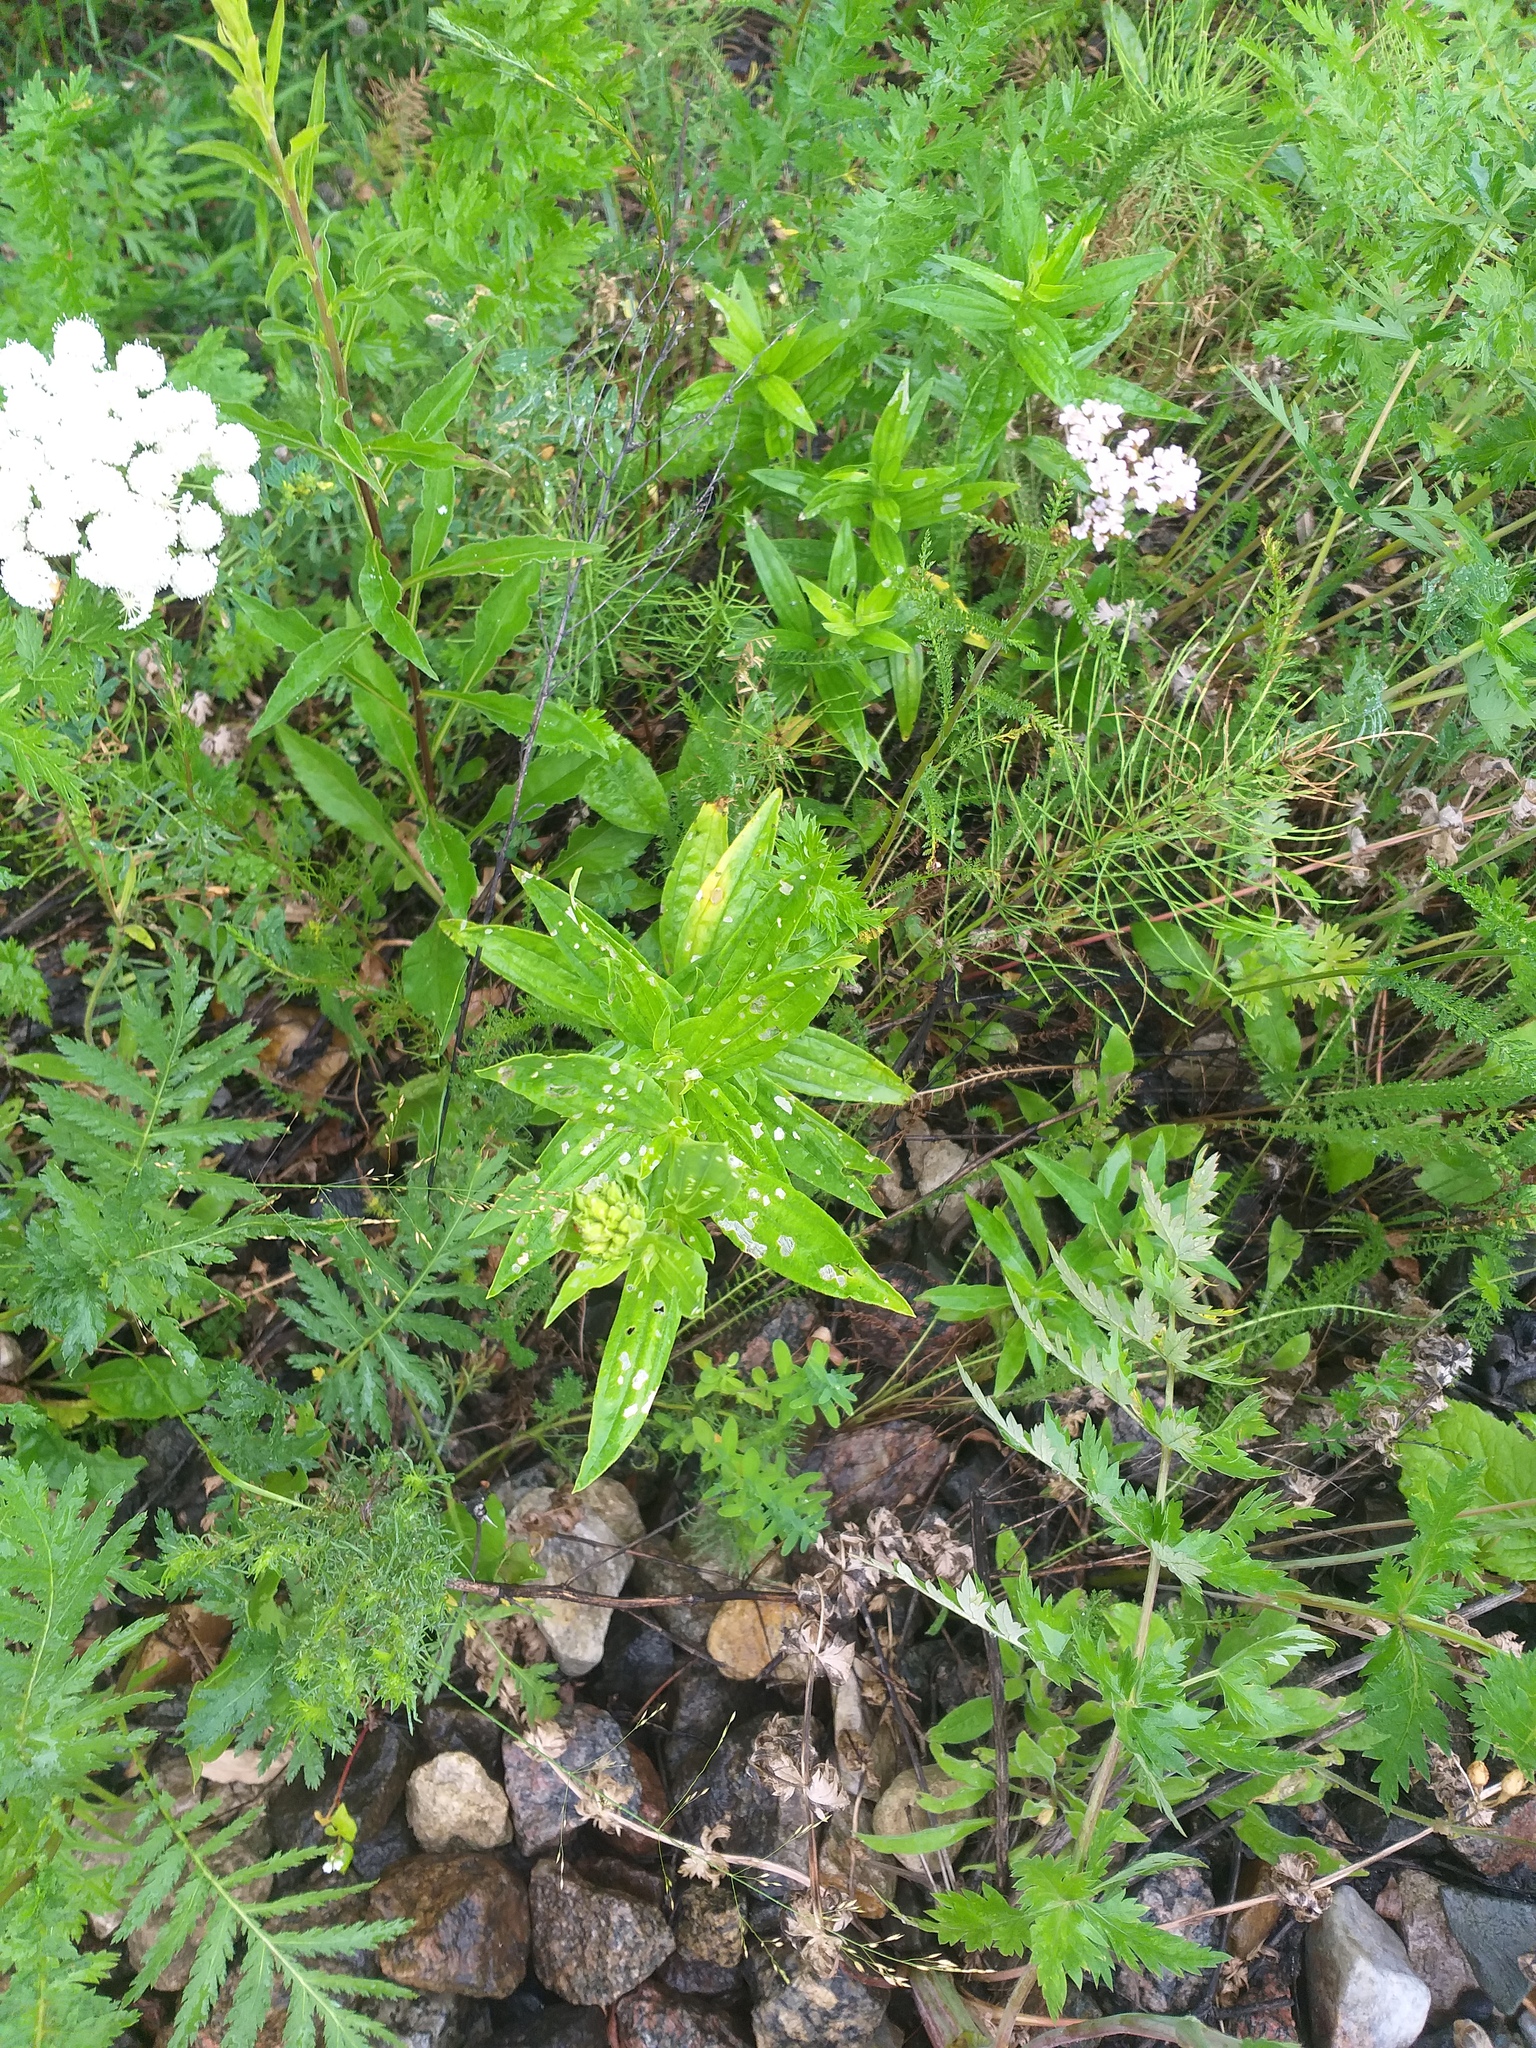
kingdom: Plantae
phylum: Tracheophyta
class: Magnoliopsida
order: Caryophyllales
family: Caryophyllaceae
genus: Saponaria
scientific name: Saponaria officinalis
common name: Soapwort
